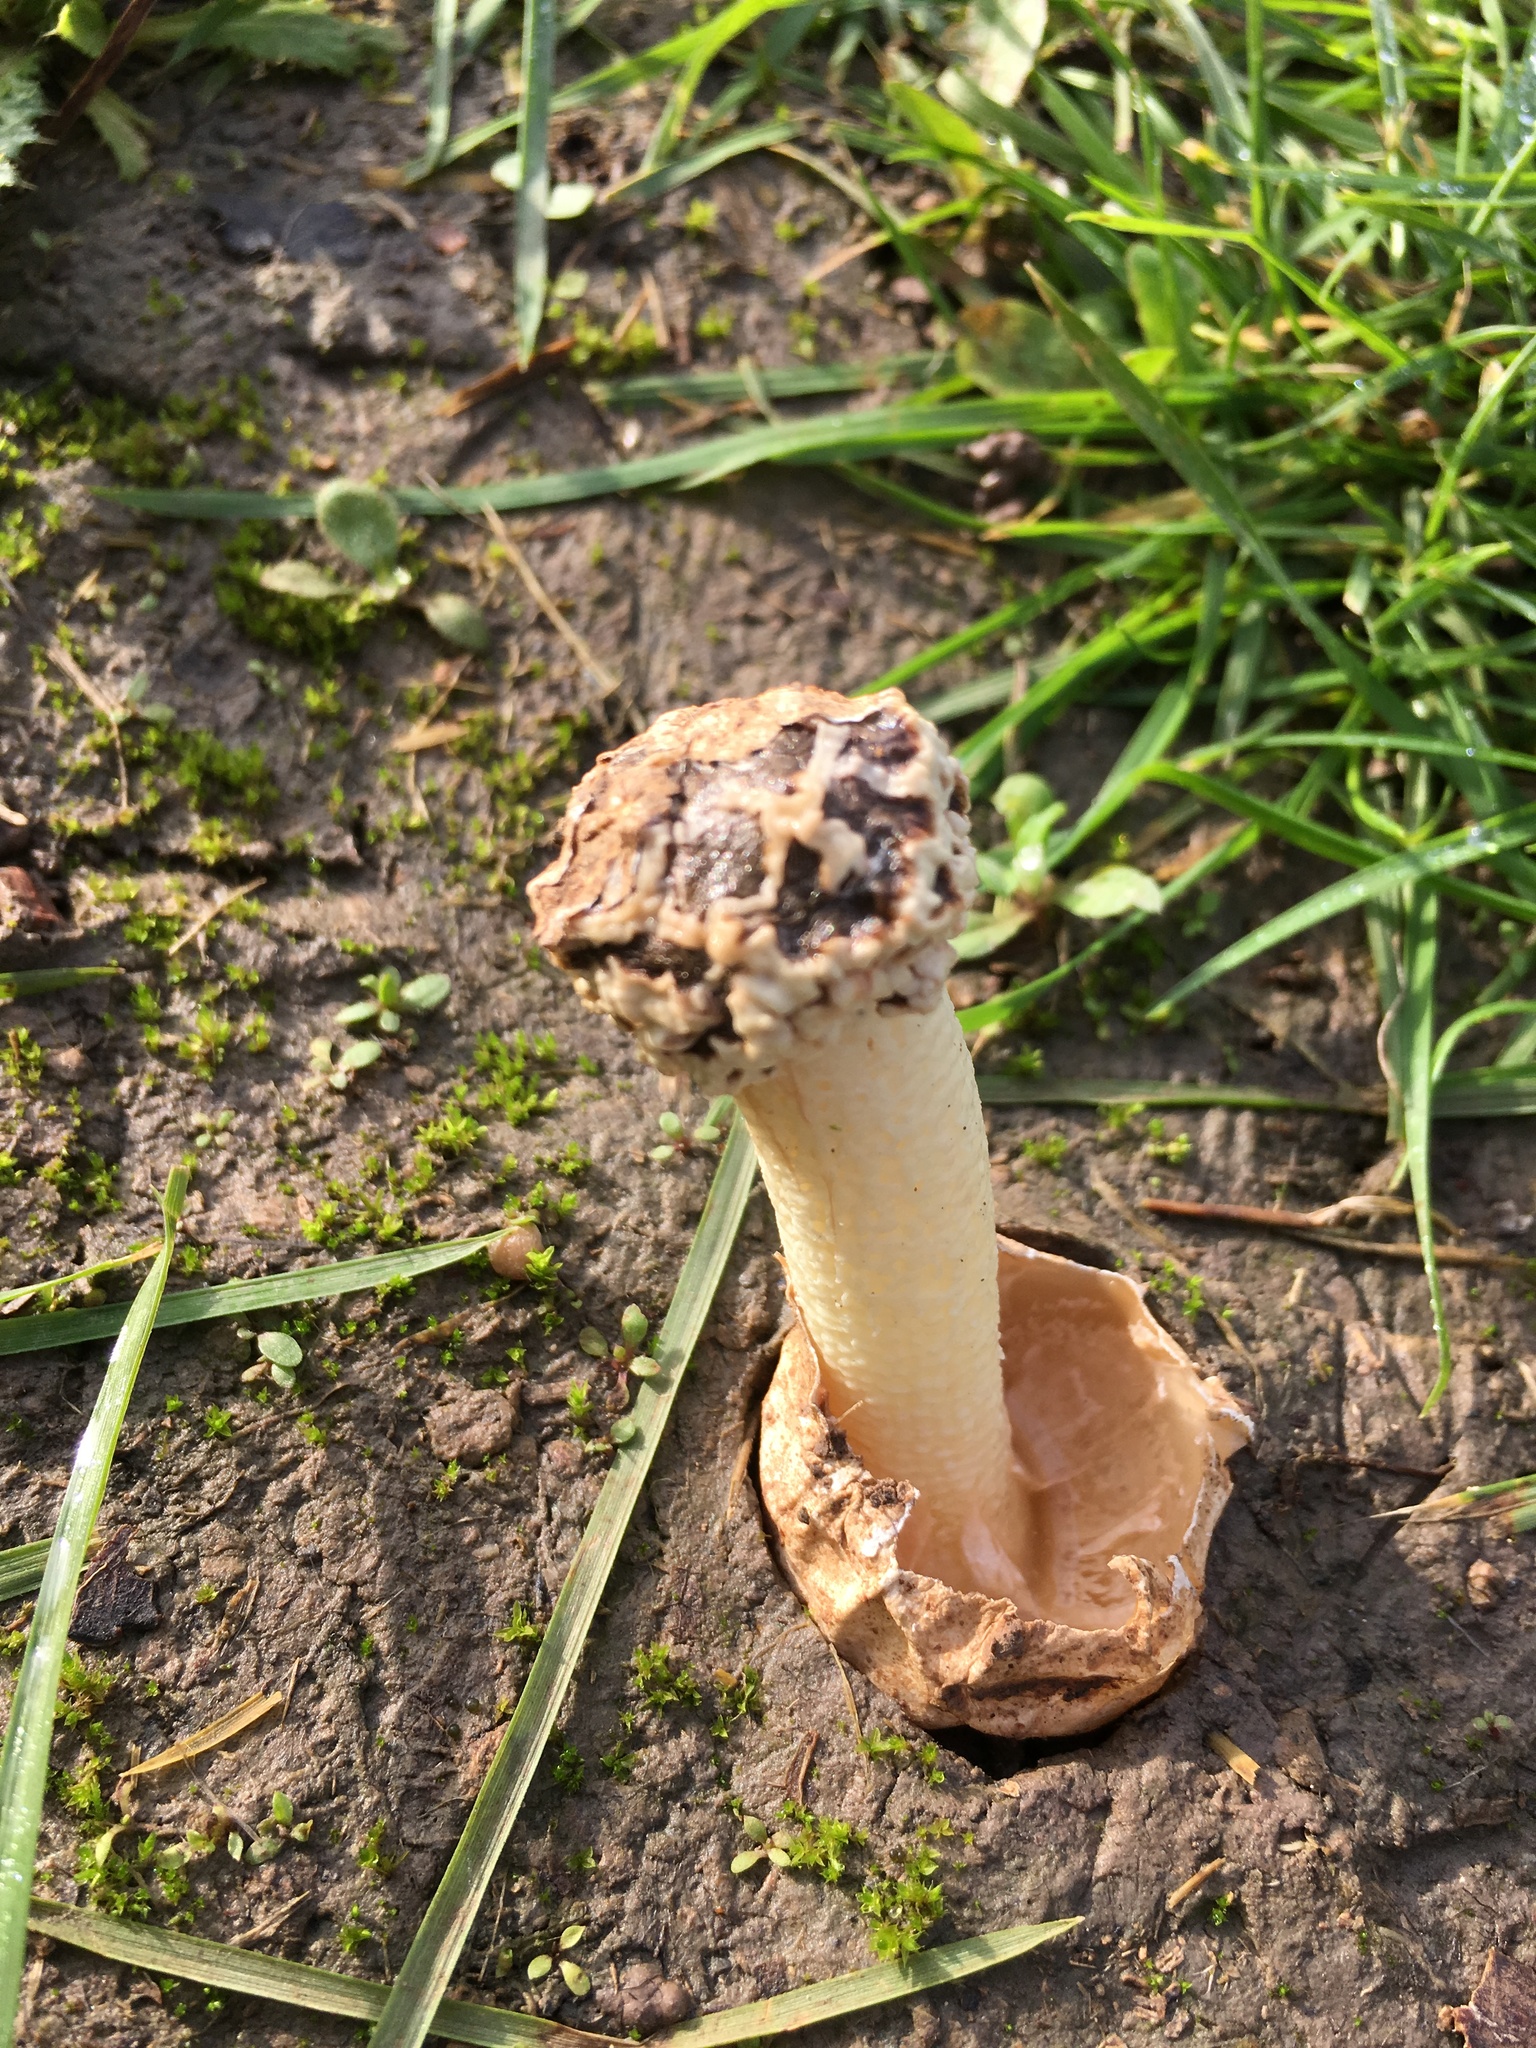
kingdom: Fungi
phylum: Basidiomycota
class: Agaricomycetes
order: Phallales
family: Phallaceae
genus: Lysurus
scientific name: Lysurus periphragmoides
